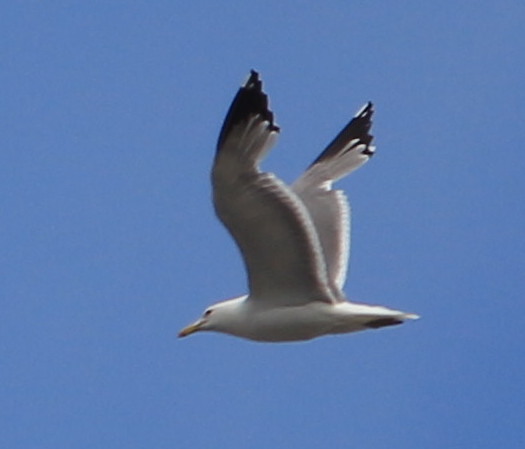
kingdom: Animalia
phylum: Chordata
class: Aves
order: Charadriiformes
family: Laridae
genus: Larus
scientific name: Larus californicus
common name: California gull
